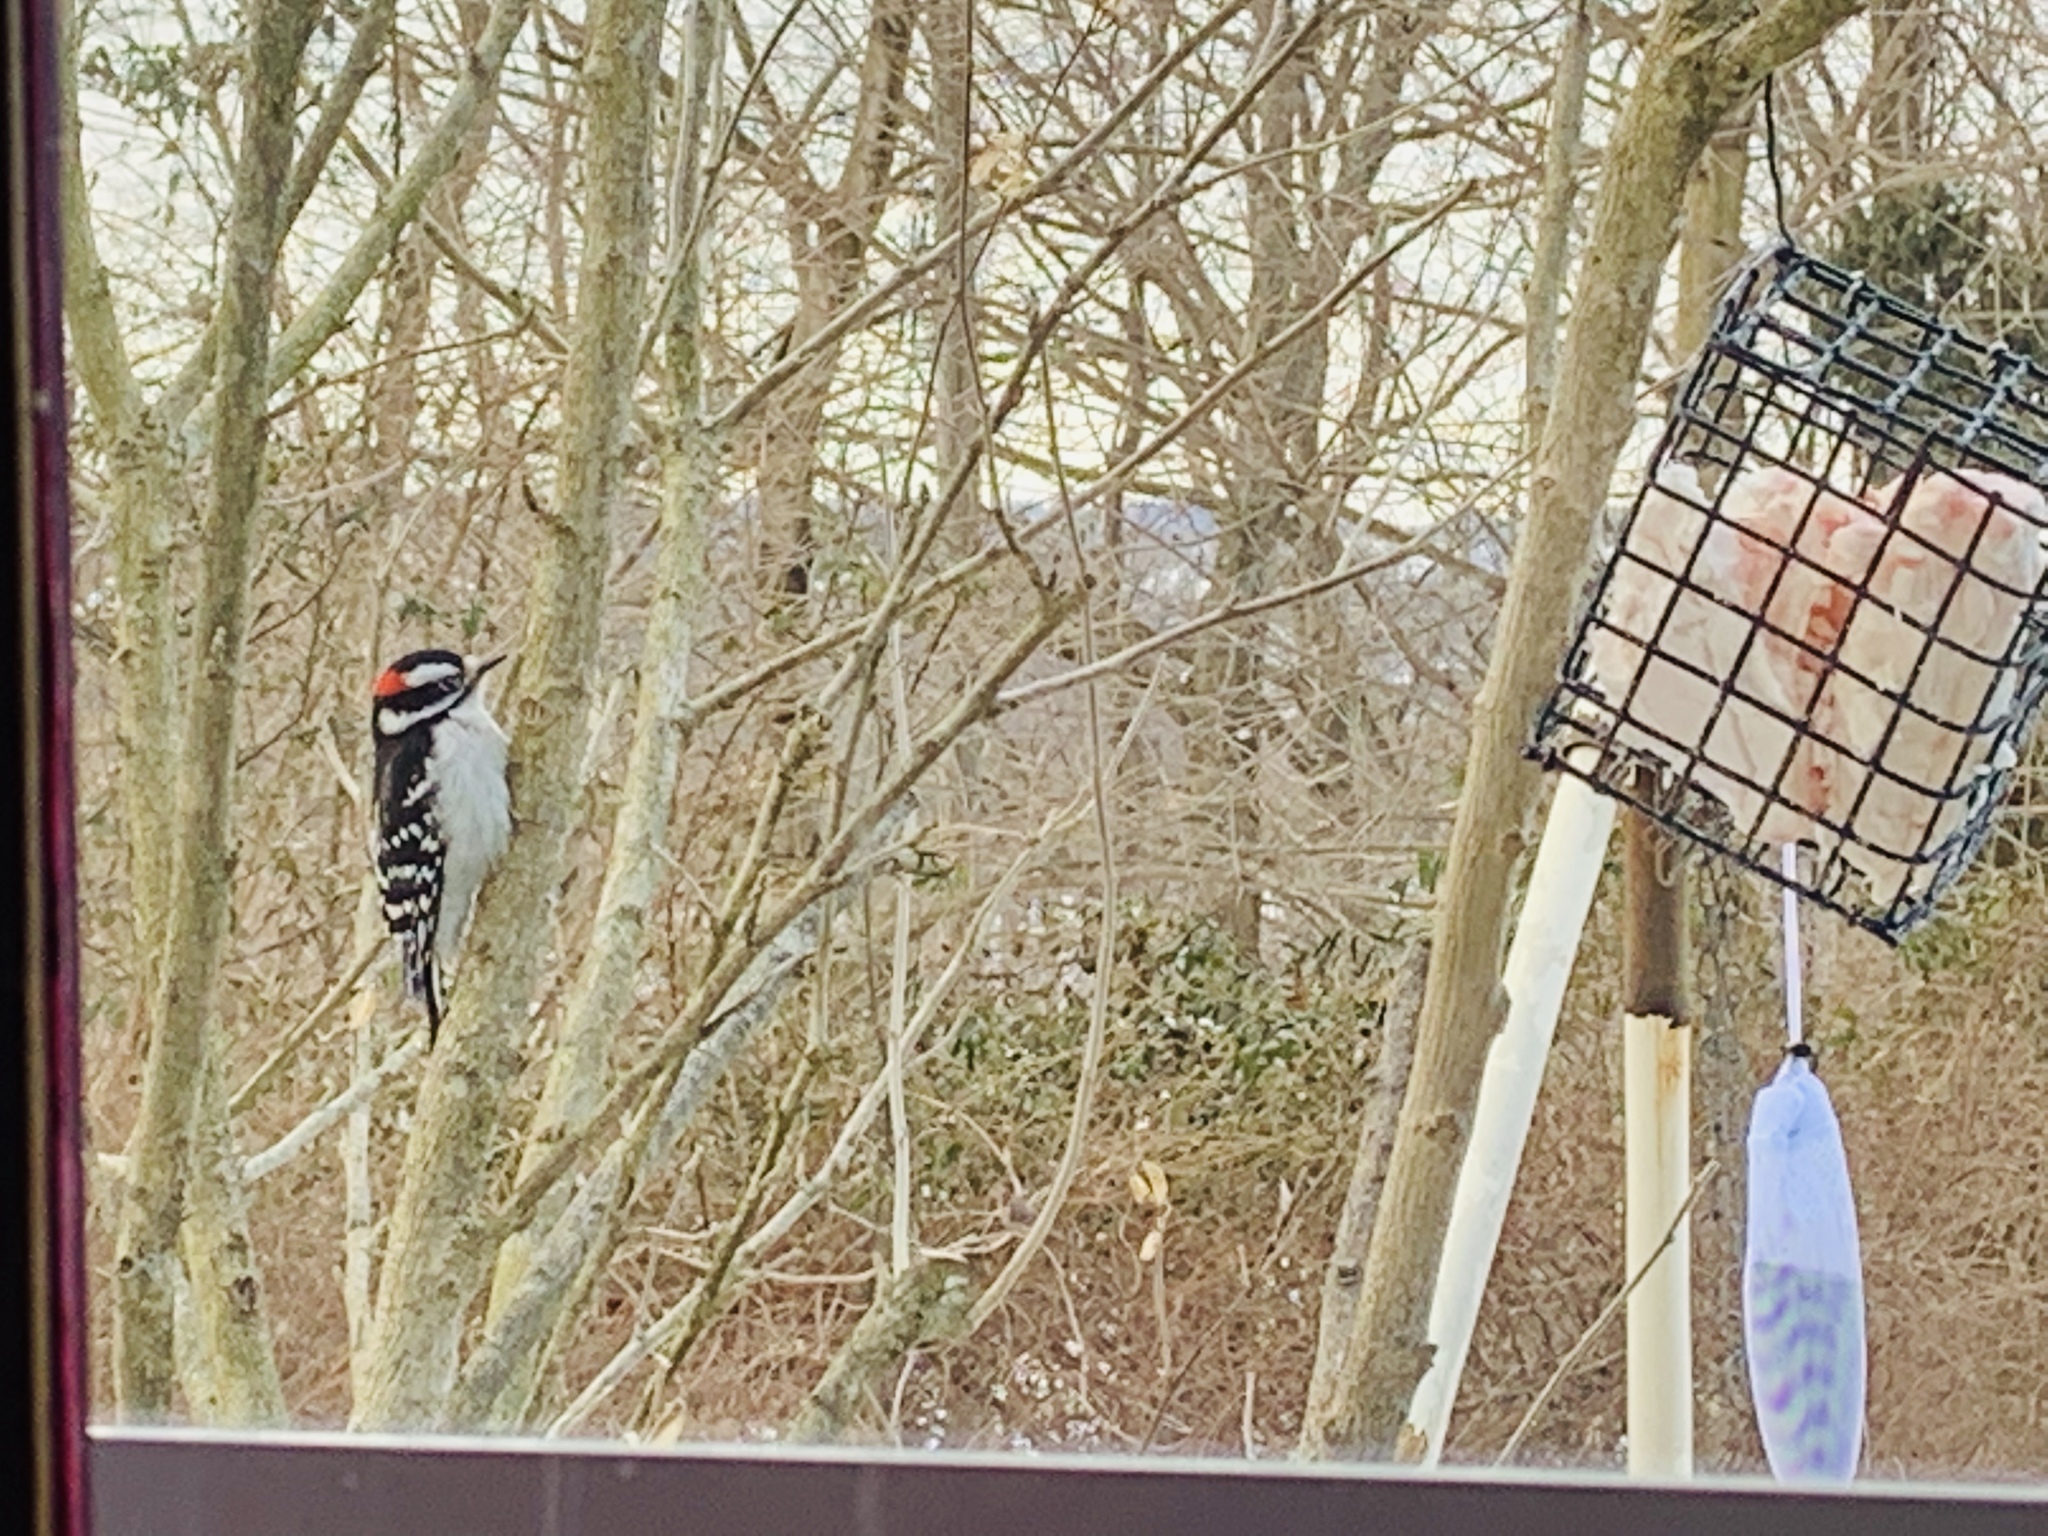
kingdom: Animalia
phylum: Chordata
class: Aves
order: Piciformes
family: Picidae
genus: Dryobates
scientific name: Dryobates pubescens
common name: Downy woodpecker
